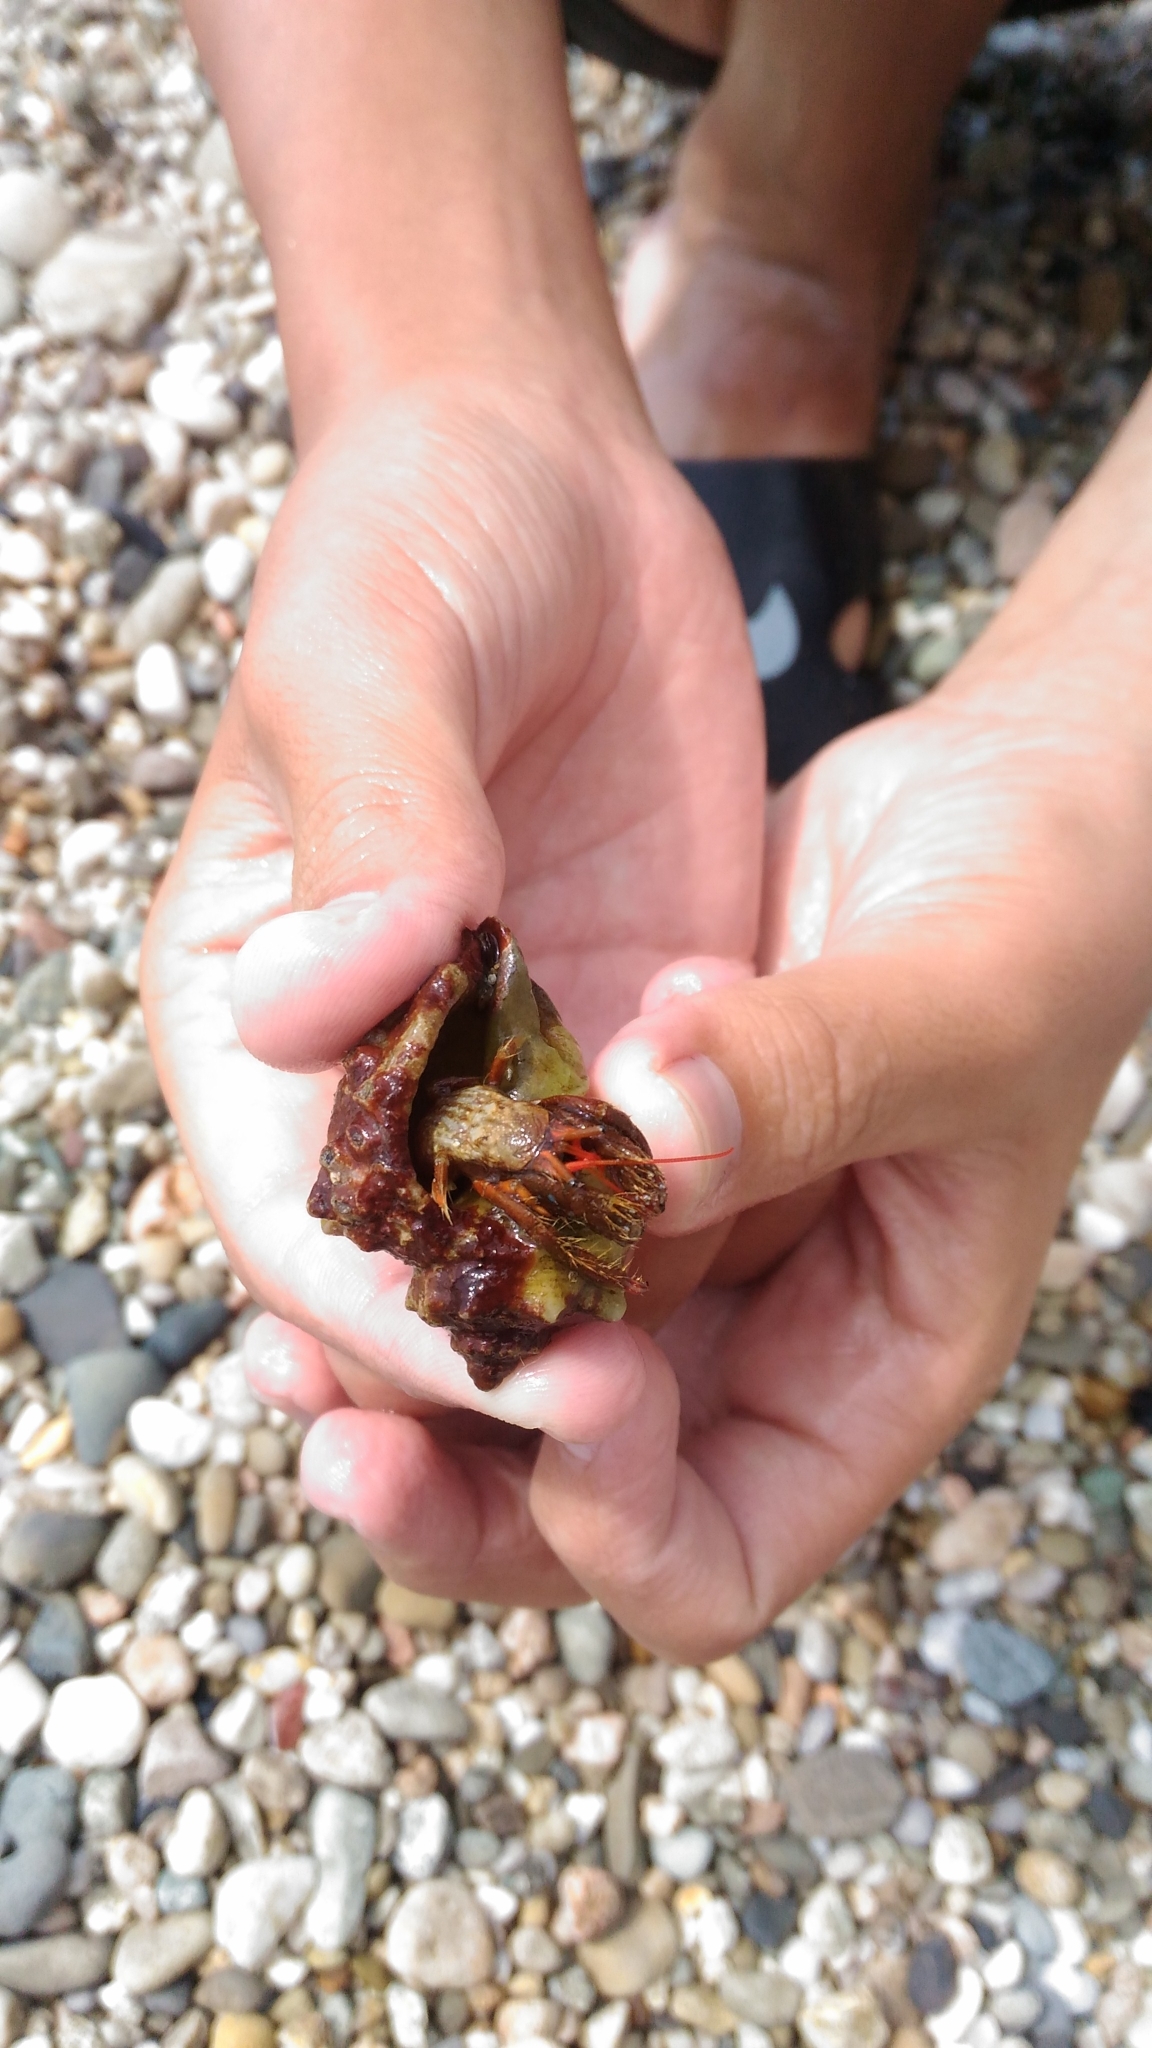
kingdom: Animalia
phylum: Arthropoda
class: Malacostraca
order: Decapoda
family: Diogenidae
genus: Clibanarius
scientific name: Clibanarius erythropus
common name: Hermit crab
